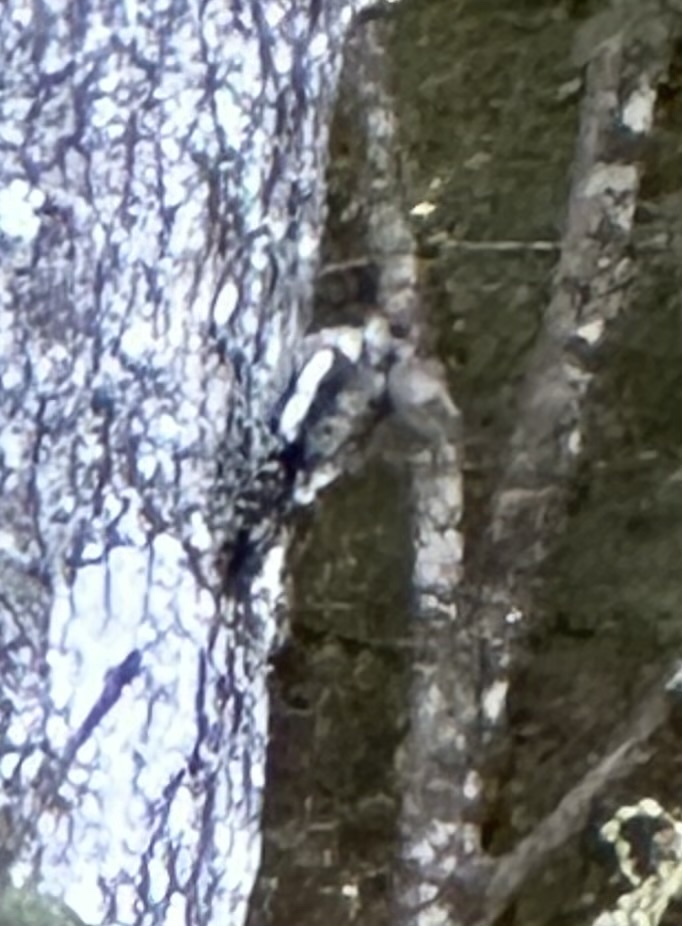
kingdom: Animalia
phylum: Chordata
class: Aves
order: Piciformes
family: Picidae
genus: Sphyrapicus
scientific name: Sphyrapicus varius
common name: Yellow-bellied sapsucker
